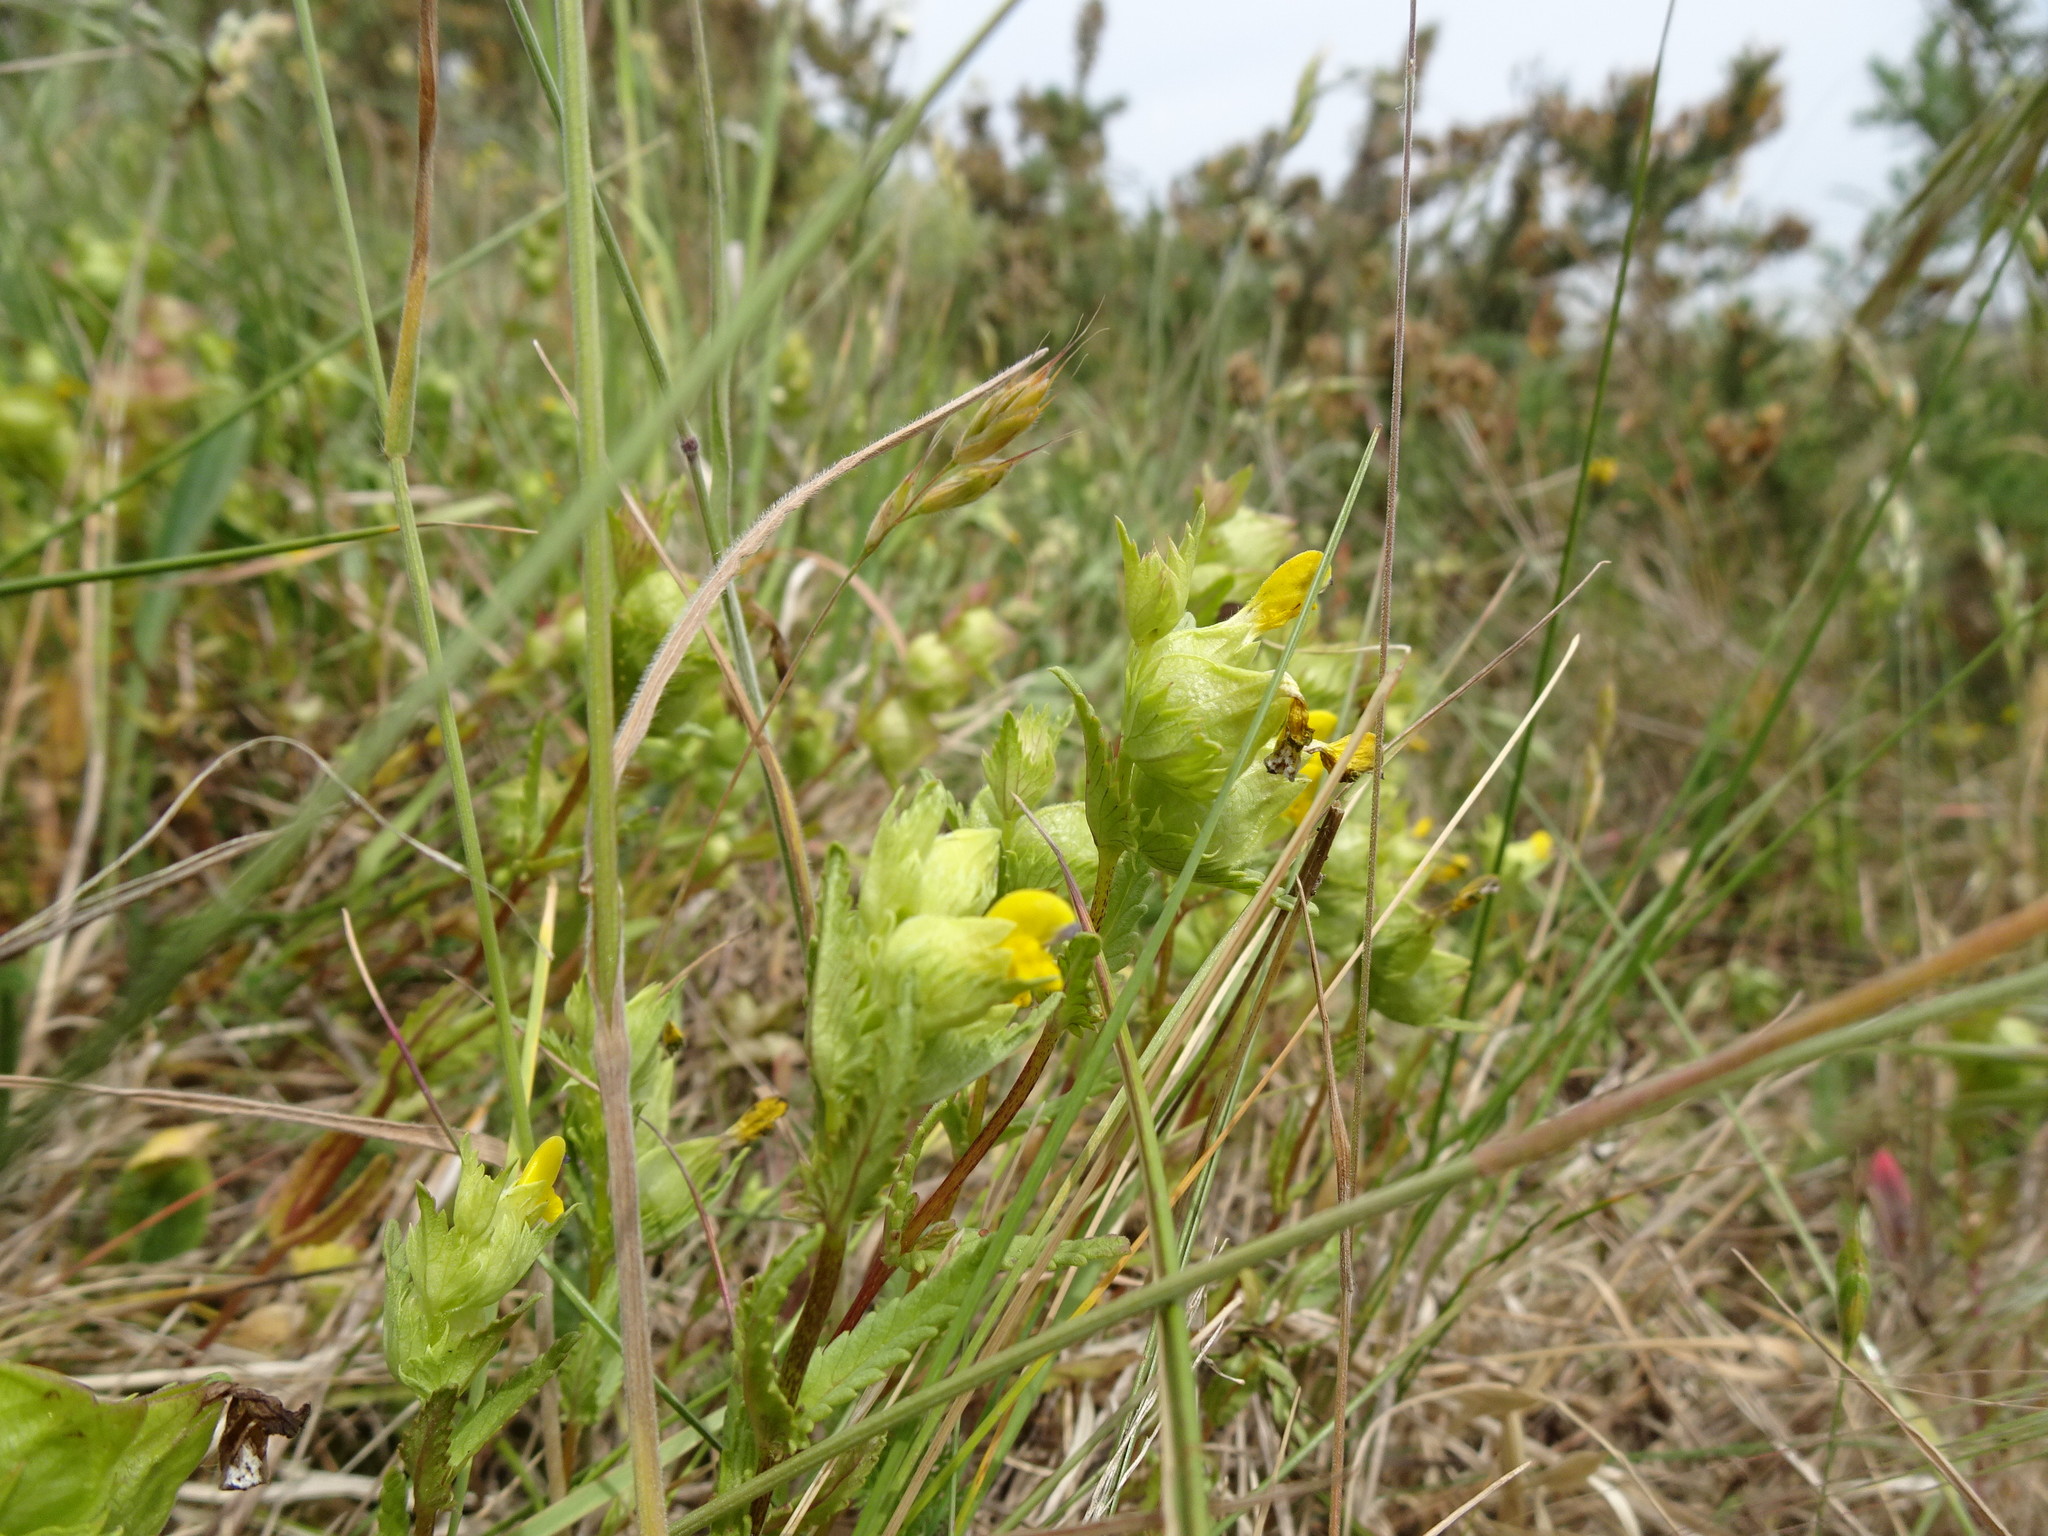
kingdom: Plantae
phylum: Tracheophyta
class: Magnoliopsida
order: Lamiales
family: Orobanchaceae
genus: Rhinanthus
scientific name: Rhinanthus minor
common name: Yellow-rattle
